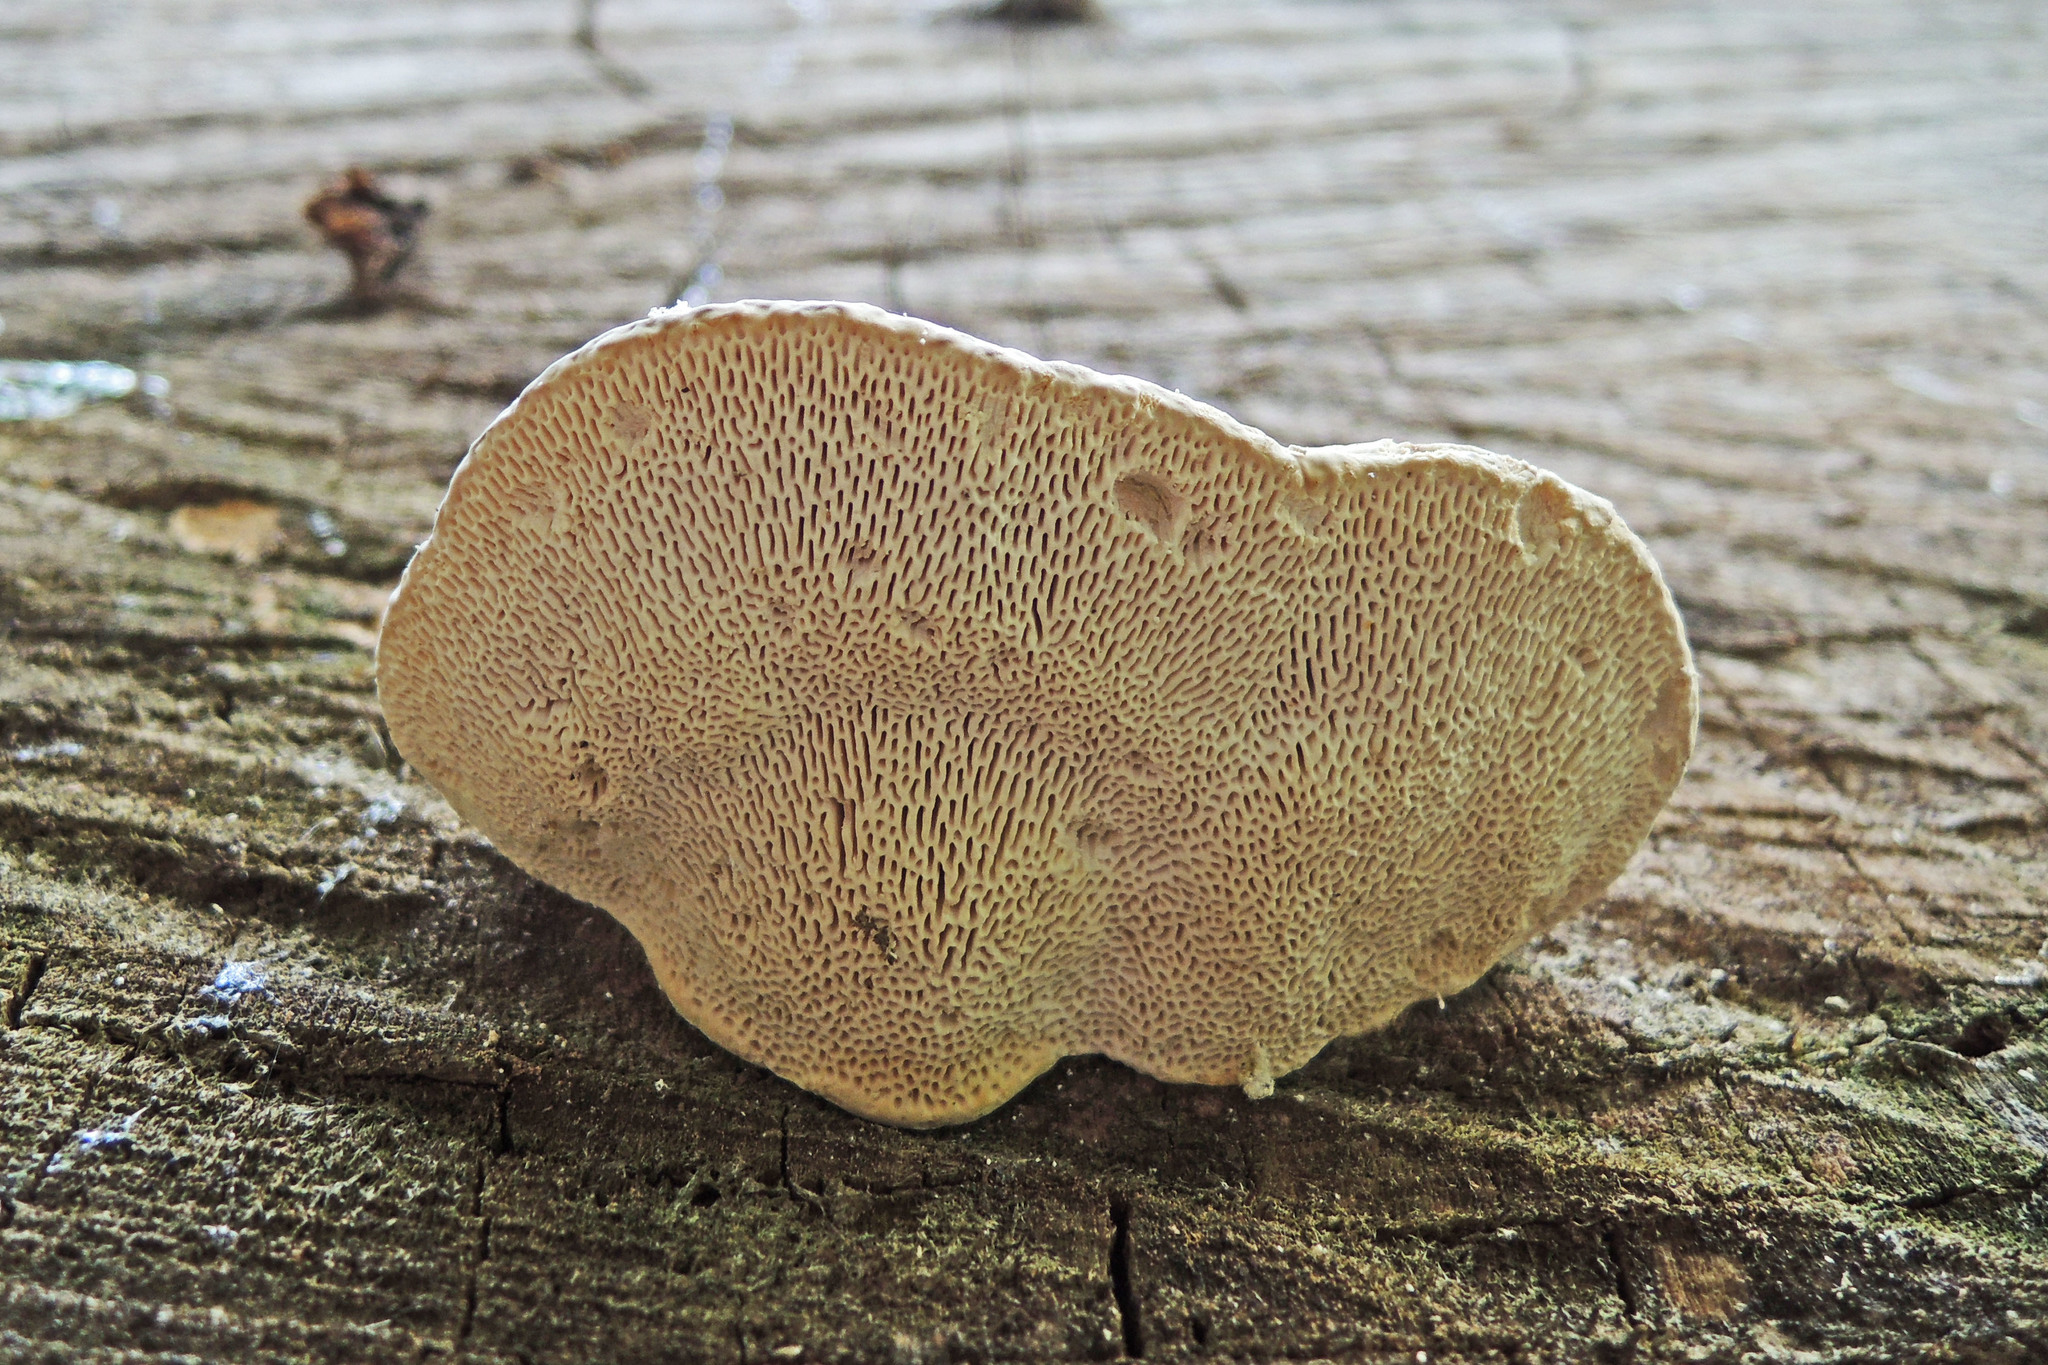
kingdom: Fungi
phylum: Basidiomycota
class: Agaricomycetes
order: Polyporales
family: Polyporaceae
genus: Trametes
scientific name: Trametes gibbosa
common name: Lumpy bracket
